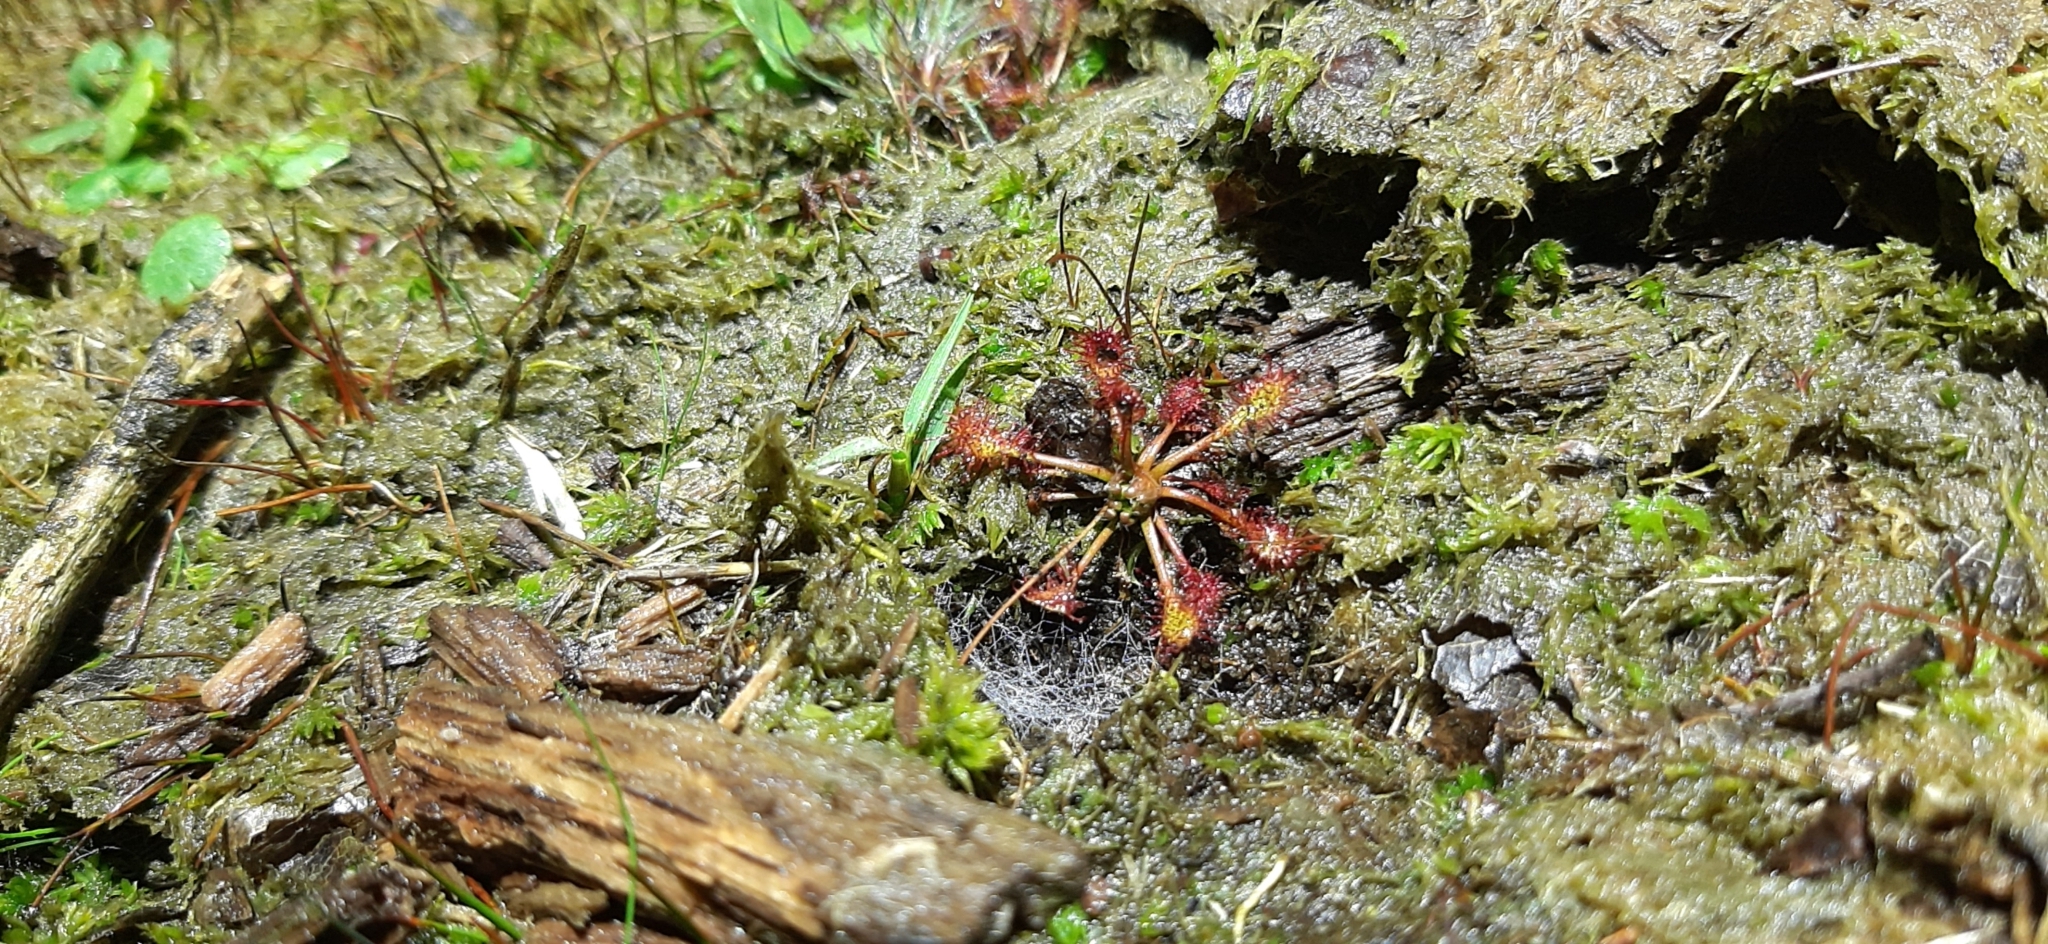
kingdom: Plantae
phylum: Tracheophyta
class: Magnoliopsida
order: Caryophyllales
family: Droseraceae
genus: Drosera
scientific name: Drosera intermedia
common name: Oblong-leaved sundew
